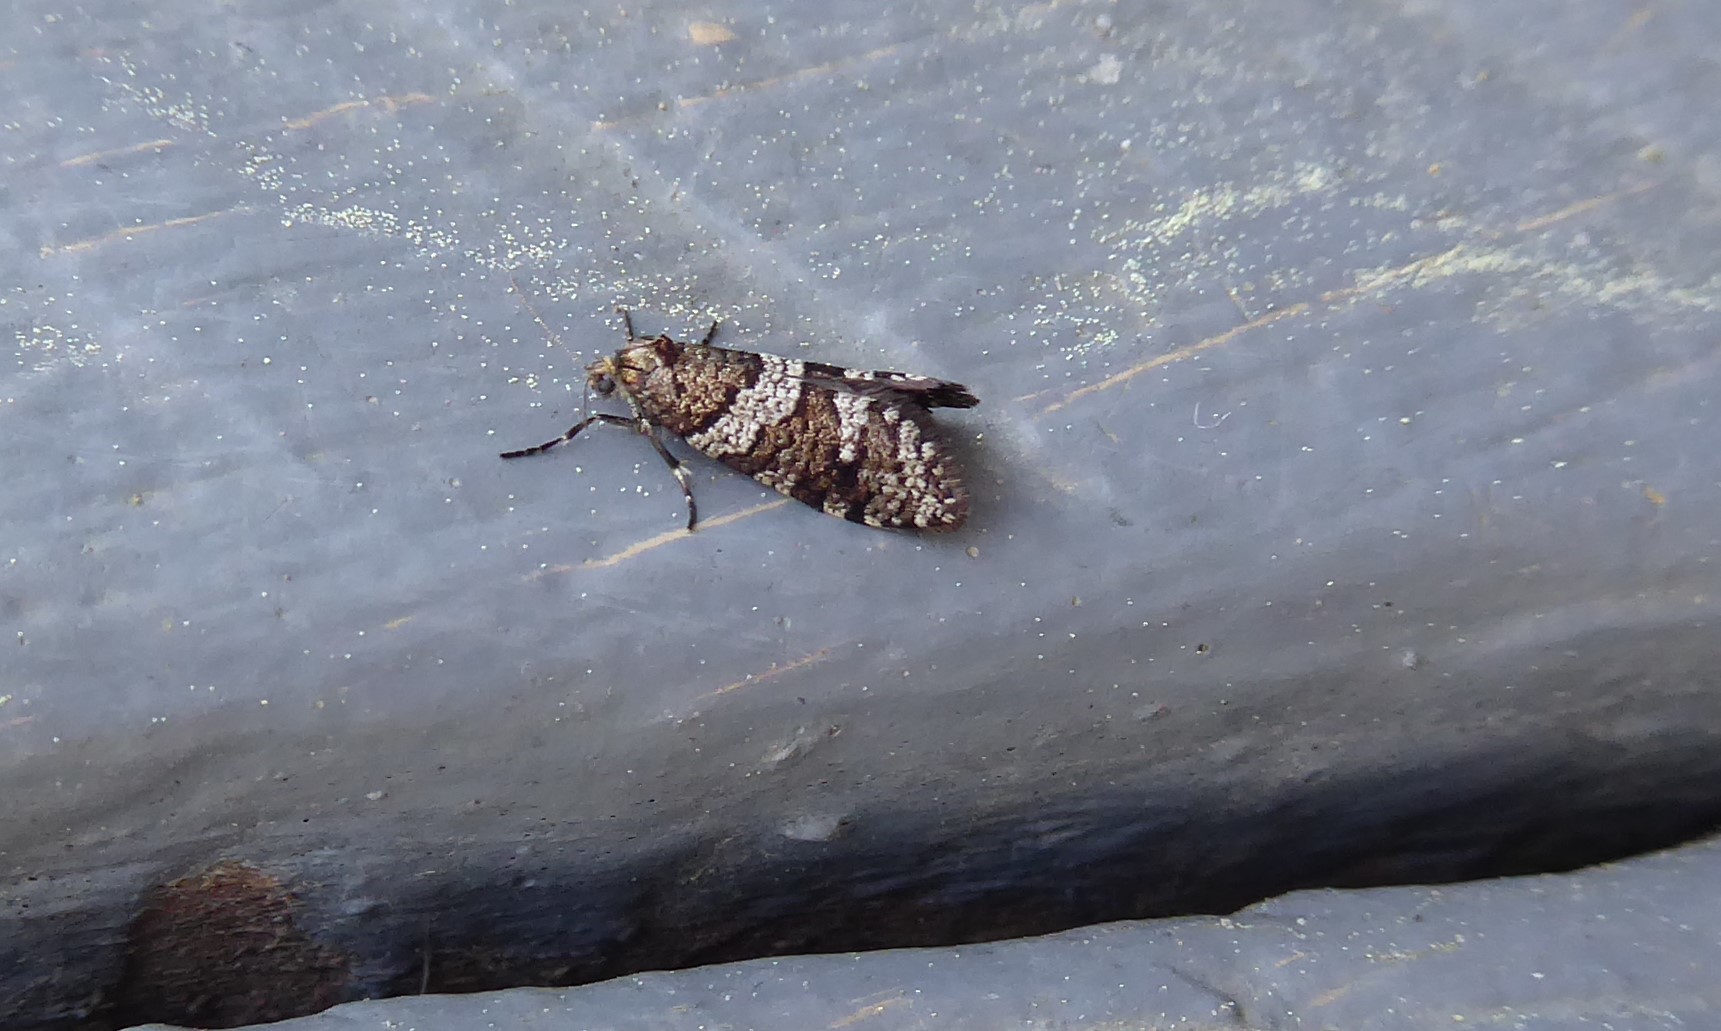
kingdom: Animalia
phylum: Arthropoda
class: Insecta
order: Lepidoptera
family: Psychidae
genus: Lepidoscia
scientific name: Lepidoscia heliochares
